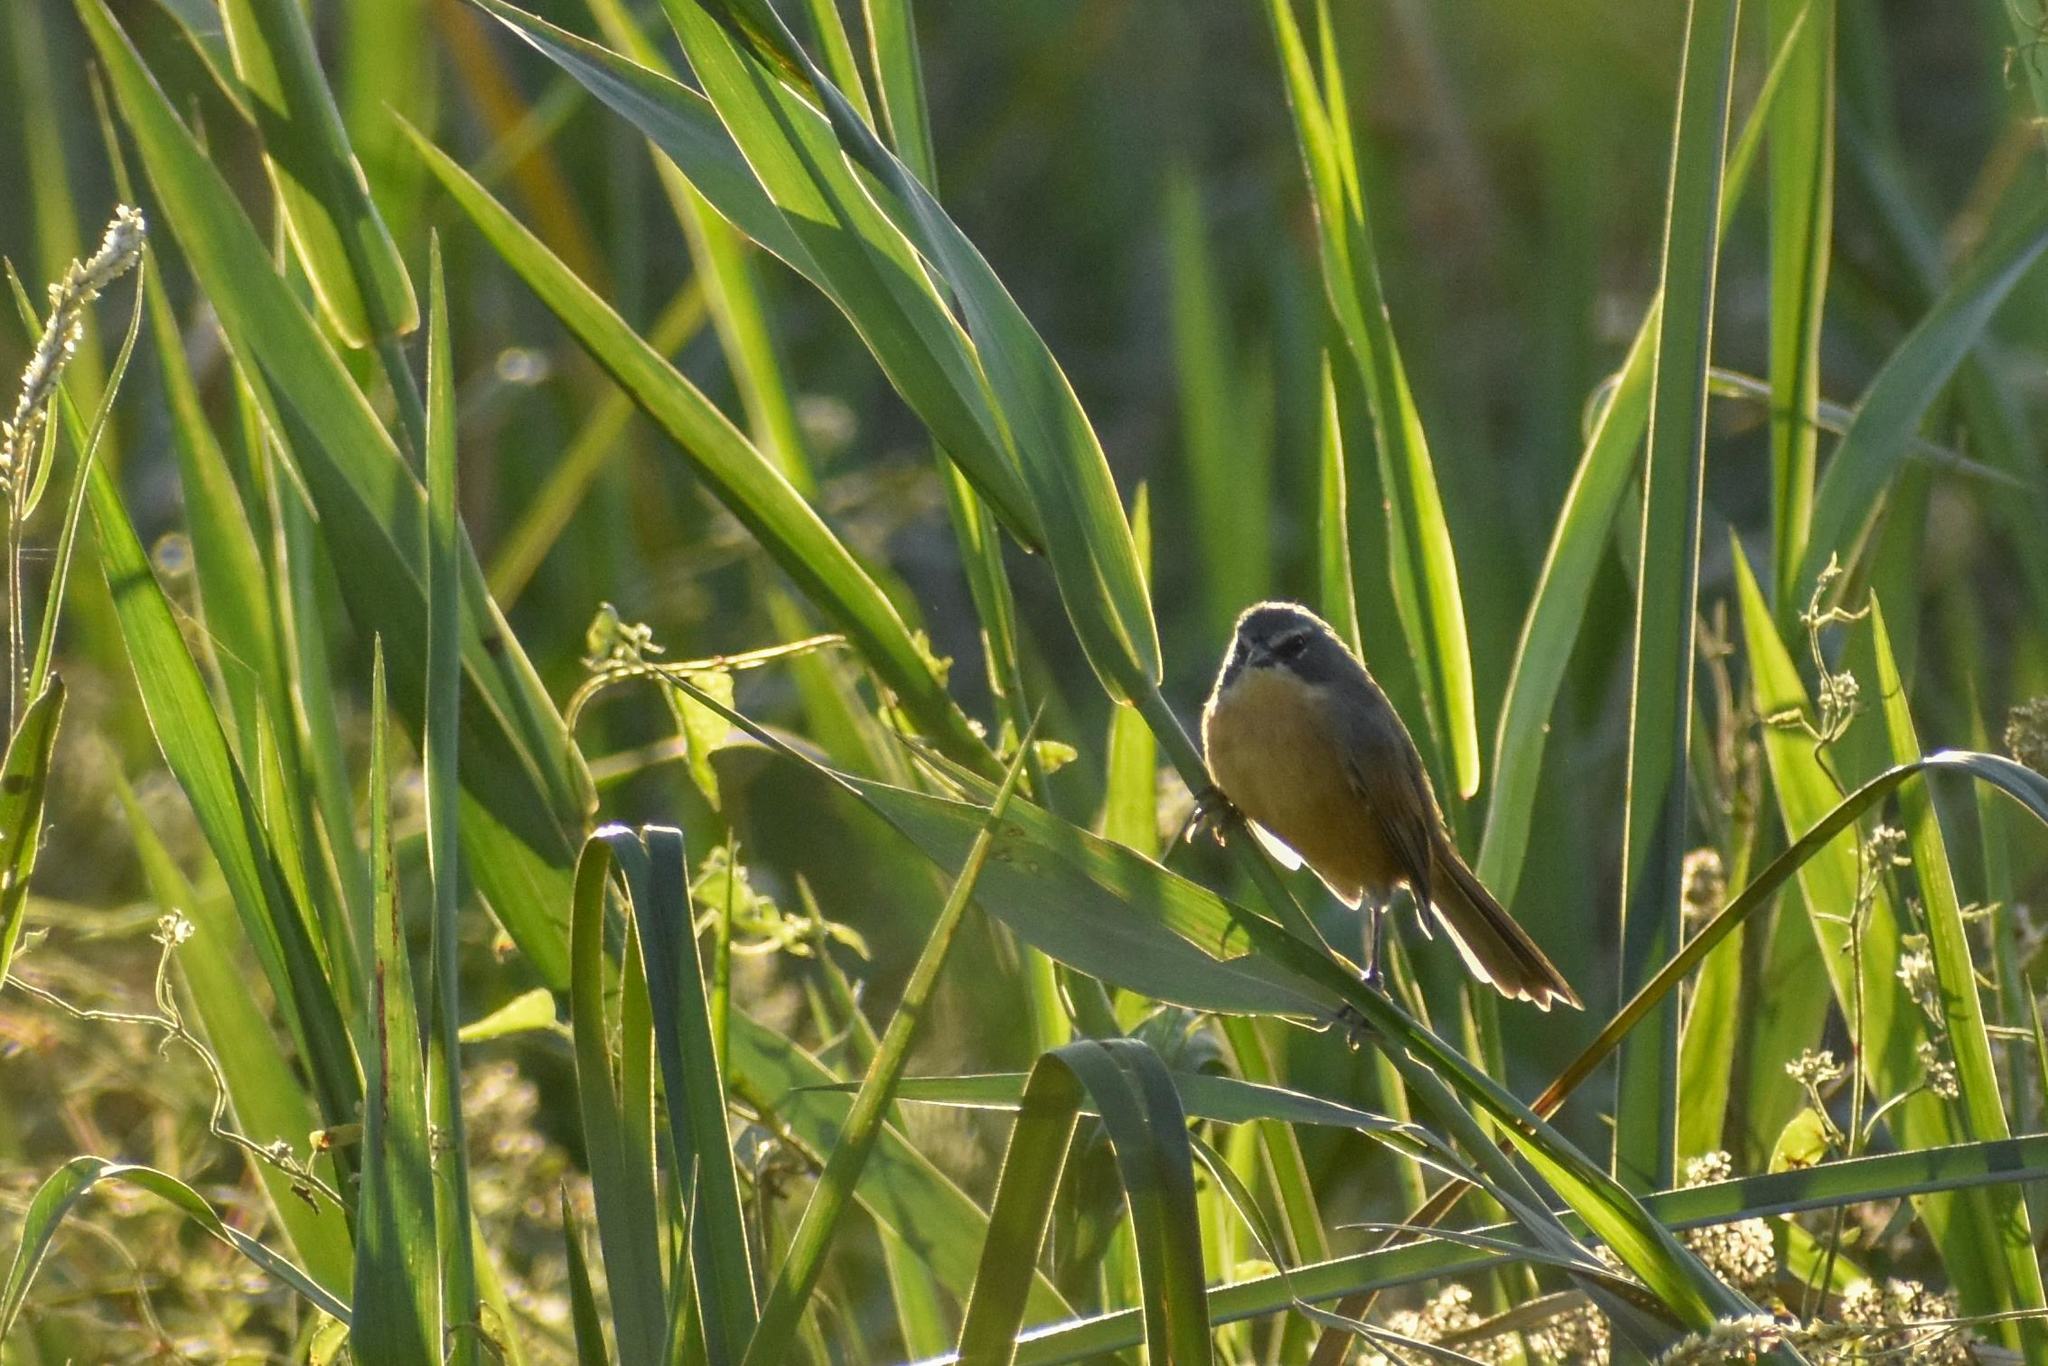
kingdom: Animalia
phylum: Chordata
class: Aves
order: Passeriformes
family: Thraupidae
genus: Donacospiza
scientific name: Donacospiza albifrons
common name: Long-tailed reed finch
